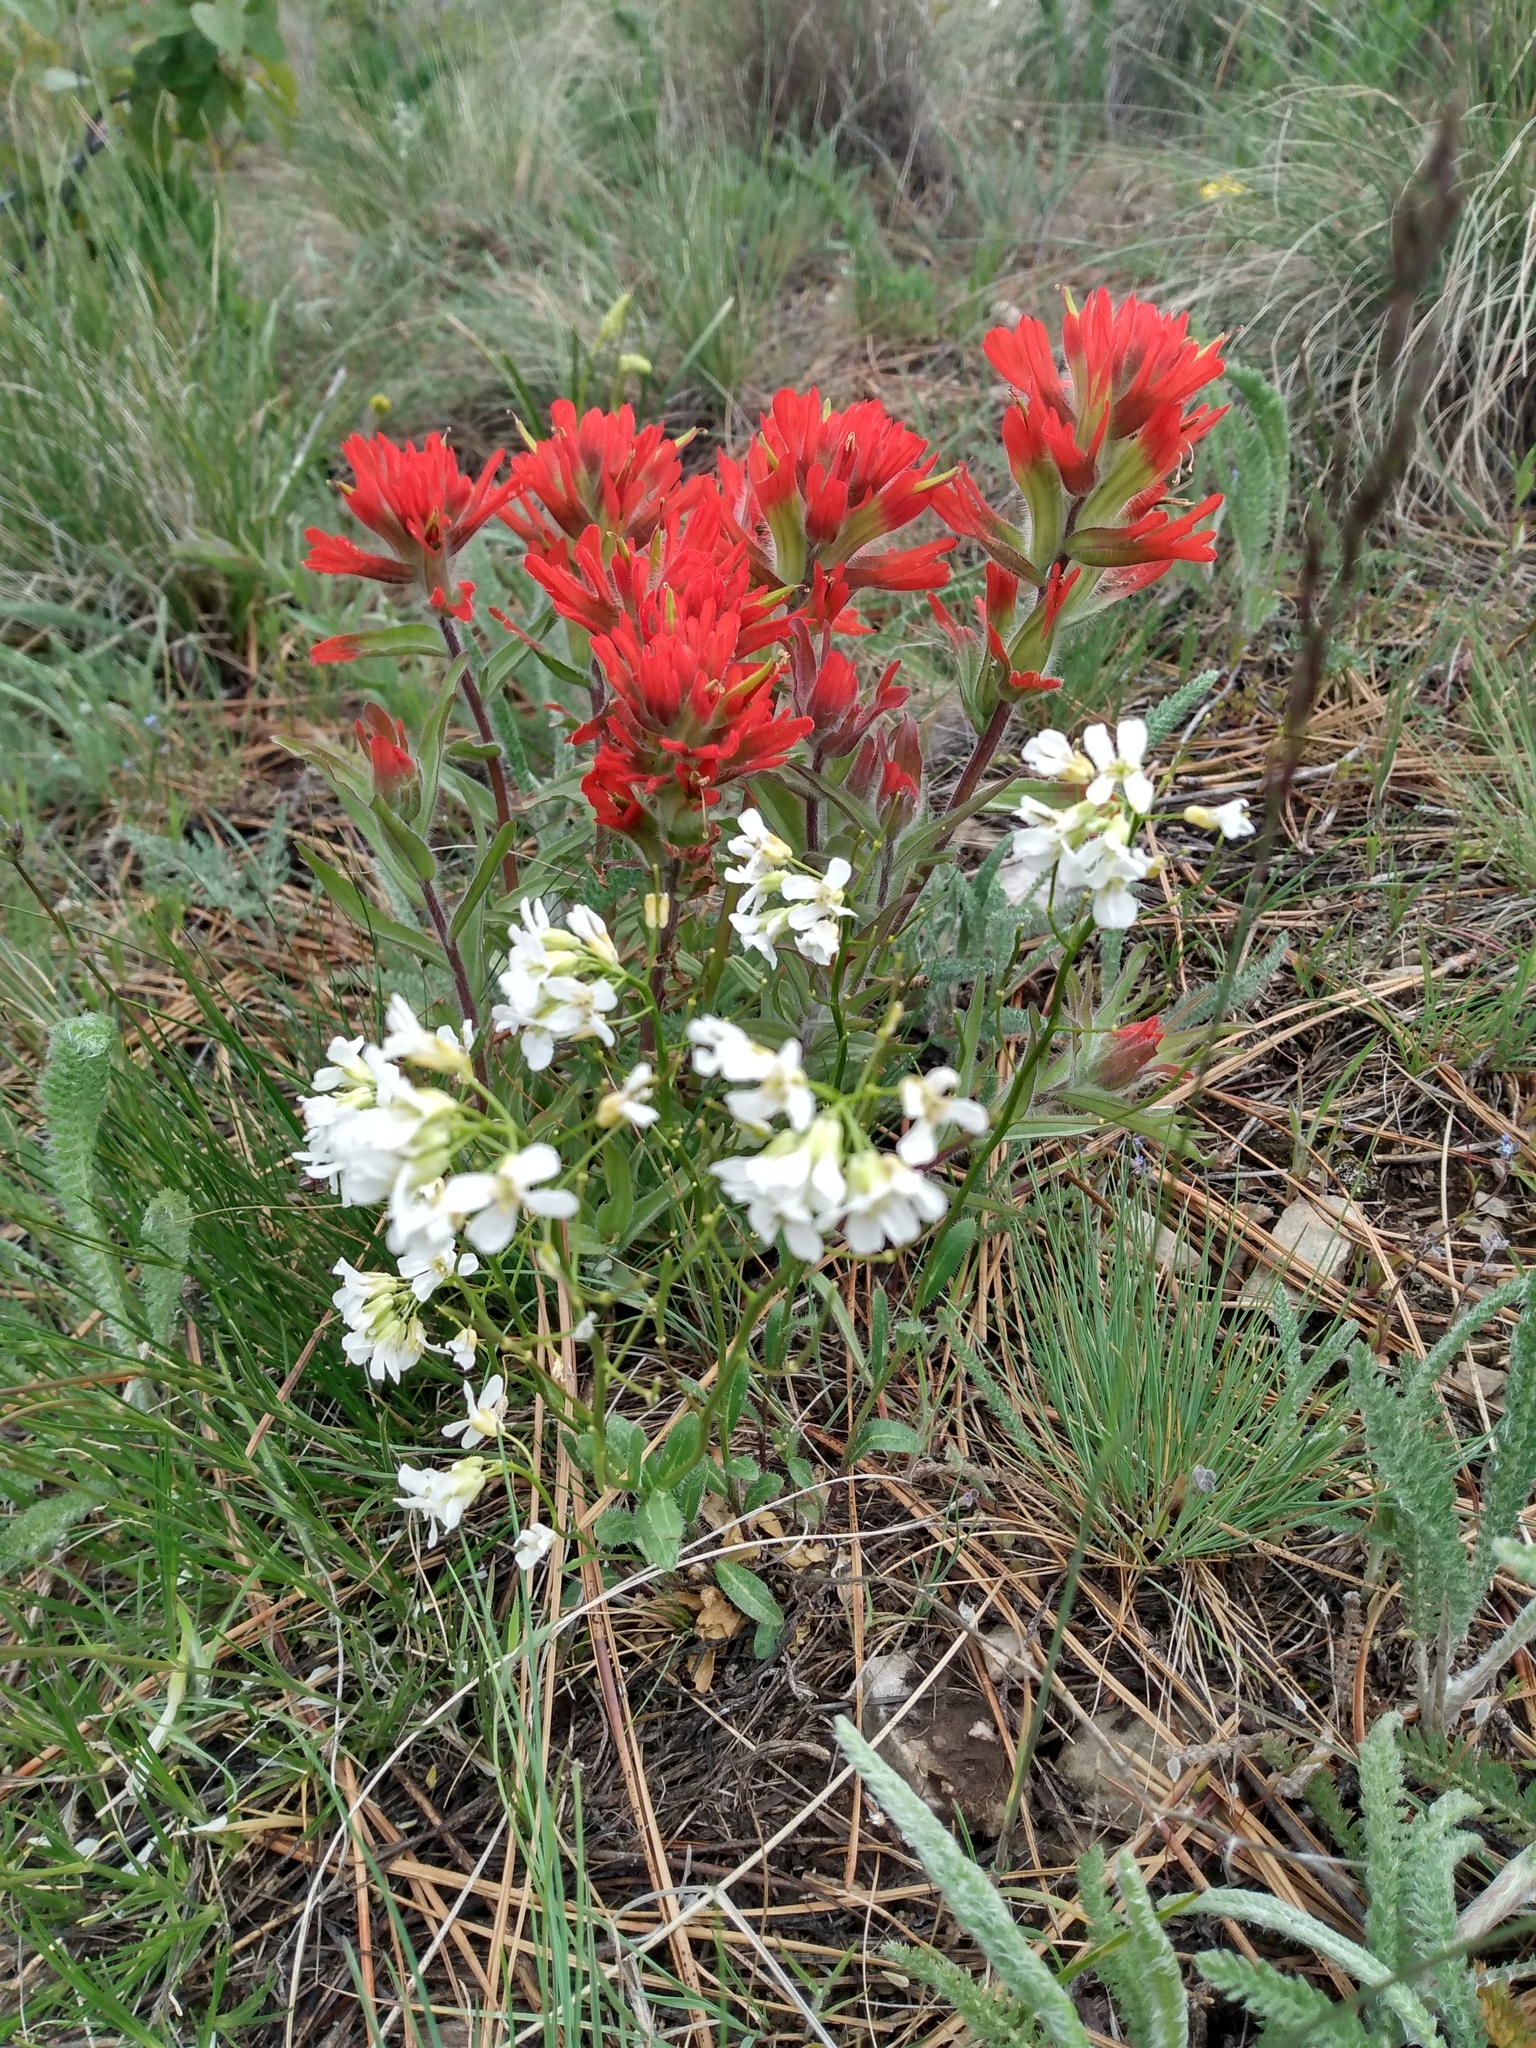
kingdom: Plantae
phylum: Tracheophyta
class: Magnoliopsida
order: Lamiales
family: Orobanchaceae
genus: Castilleja
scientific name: Castilleja hispida
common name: Bristly paintbrush
